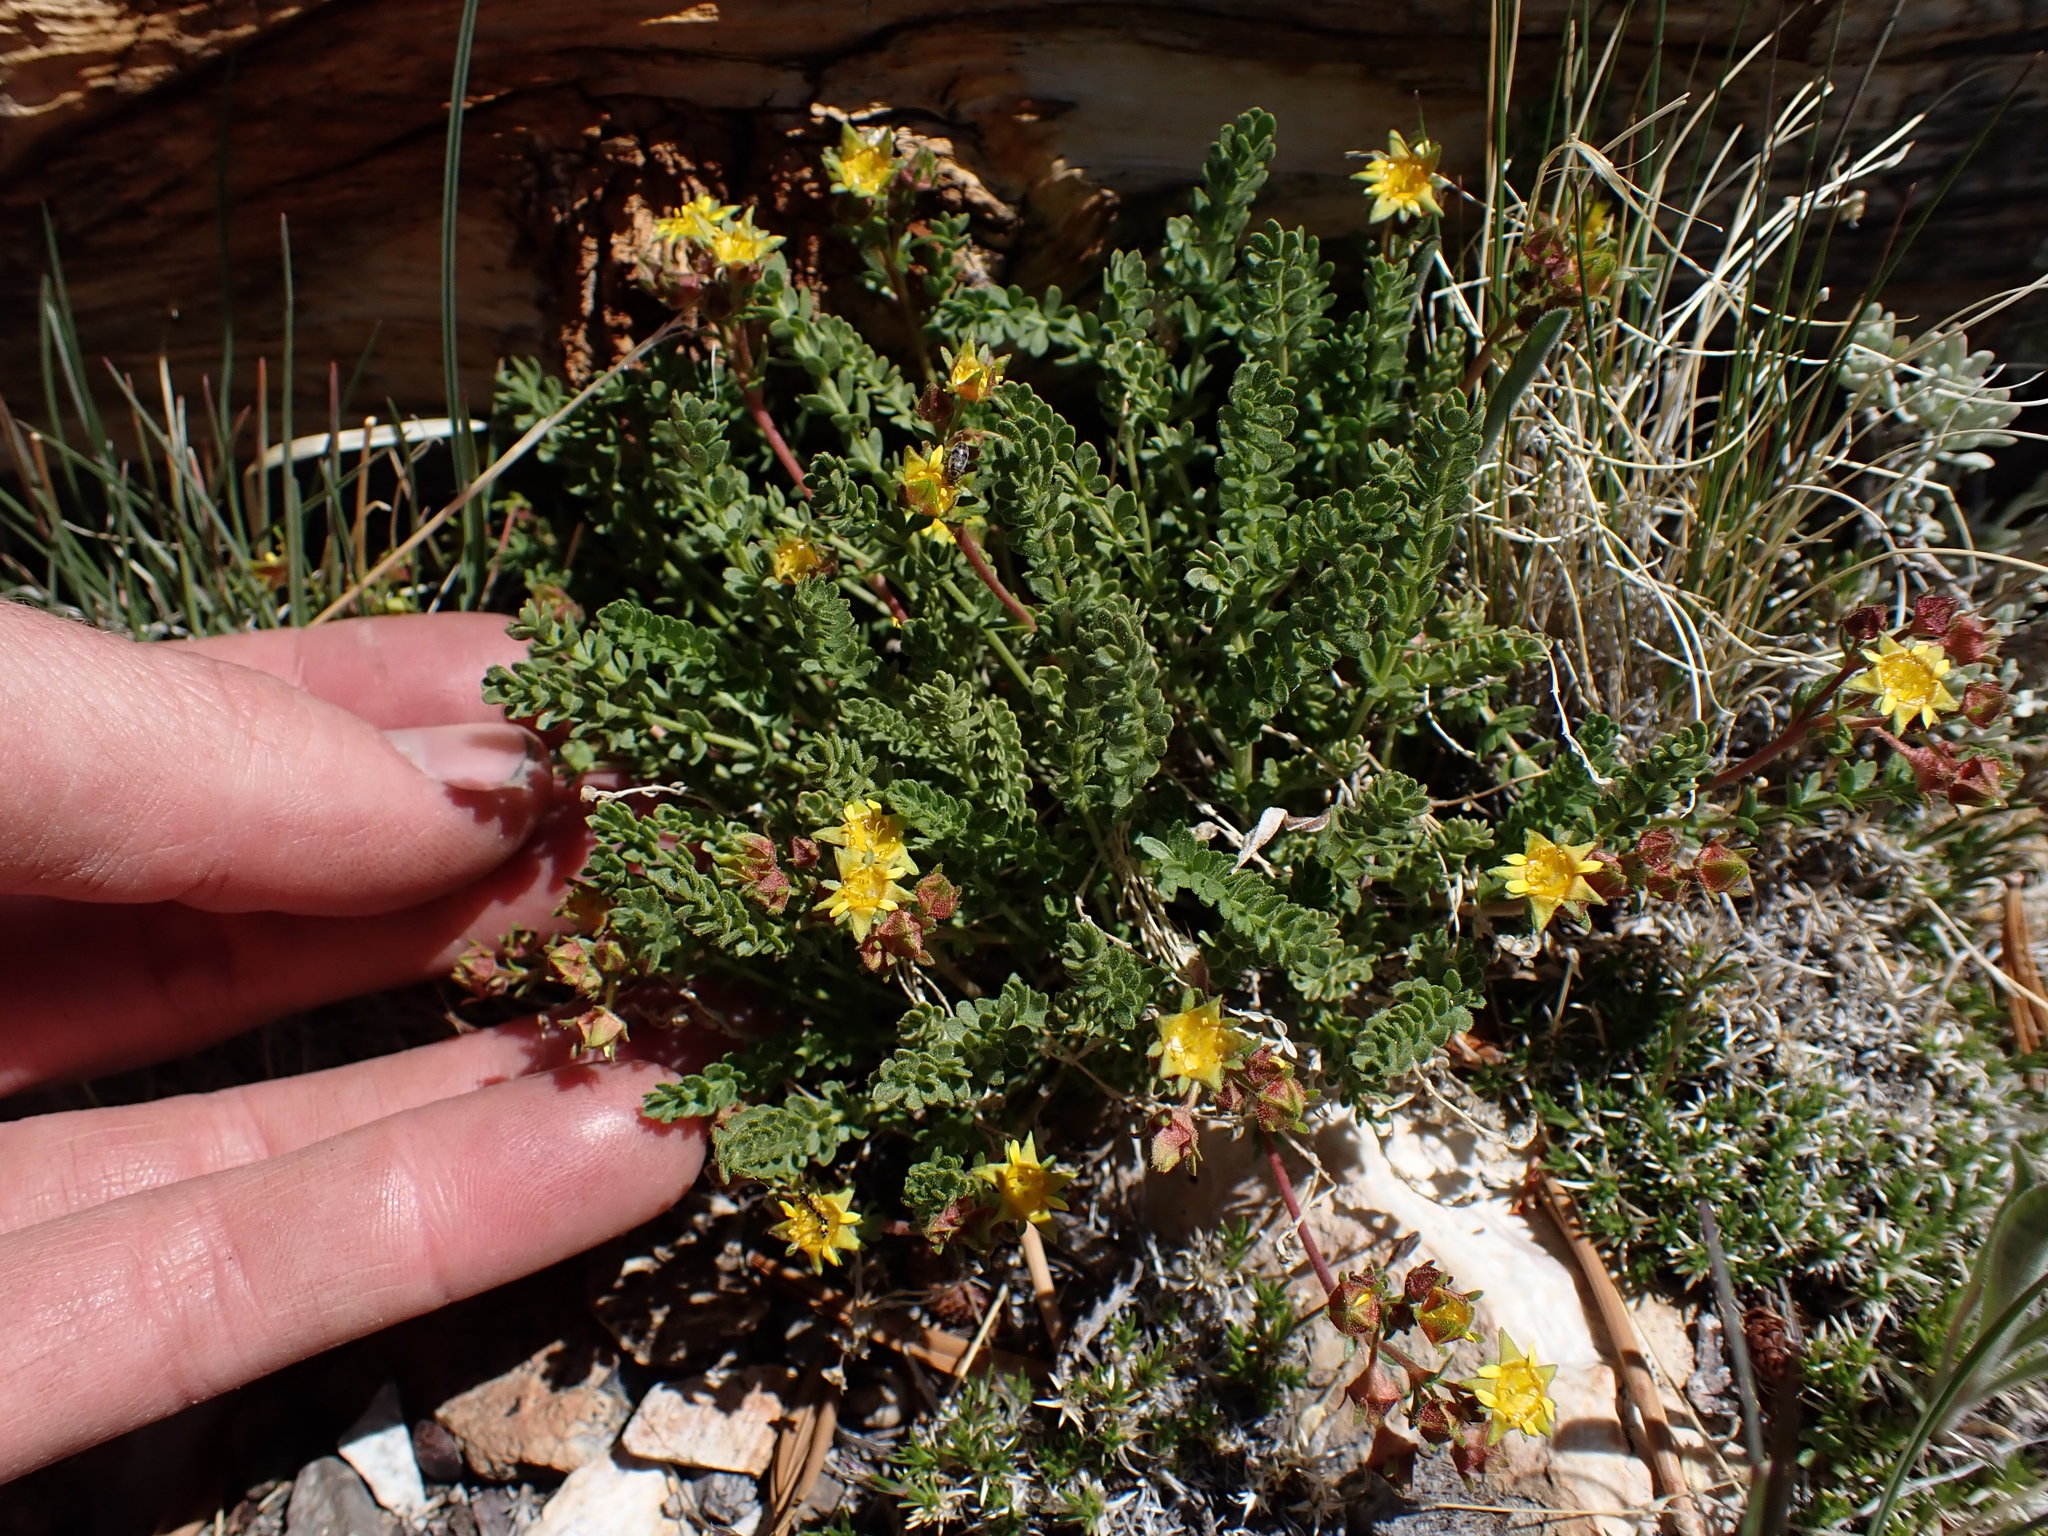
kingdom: Plantae
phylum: Tracheophyta
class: Magnoliopsida
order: Rosales
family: Rosaceae
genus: Potentilla
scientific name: Potentilla shockleyi
